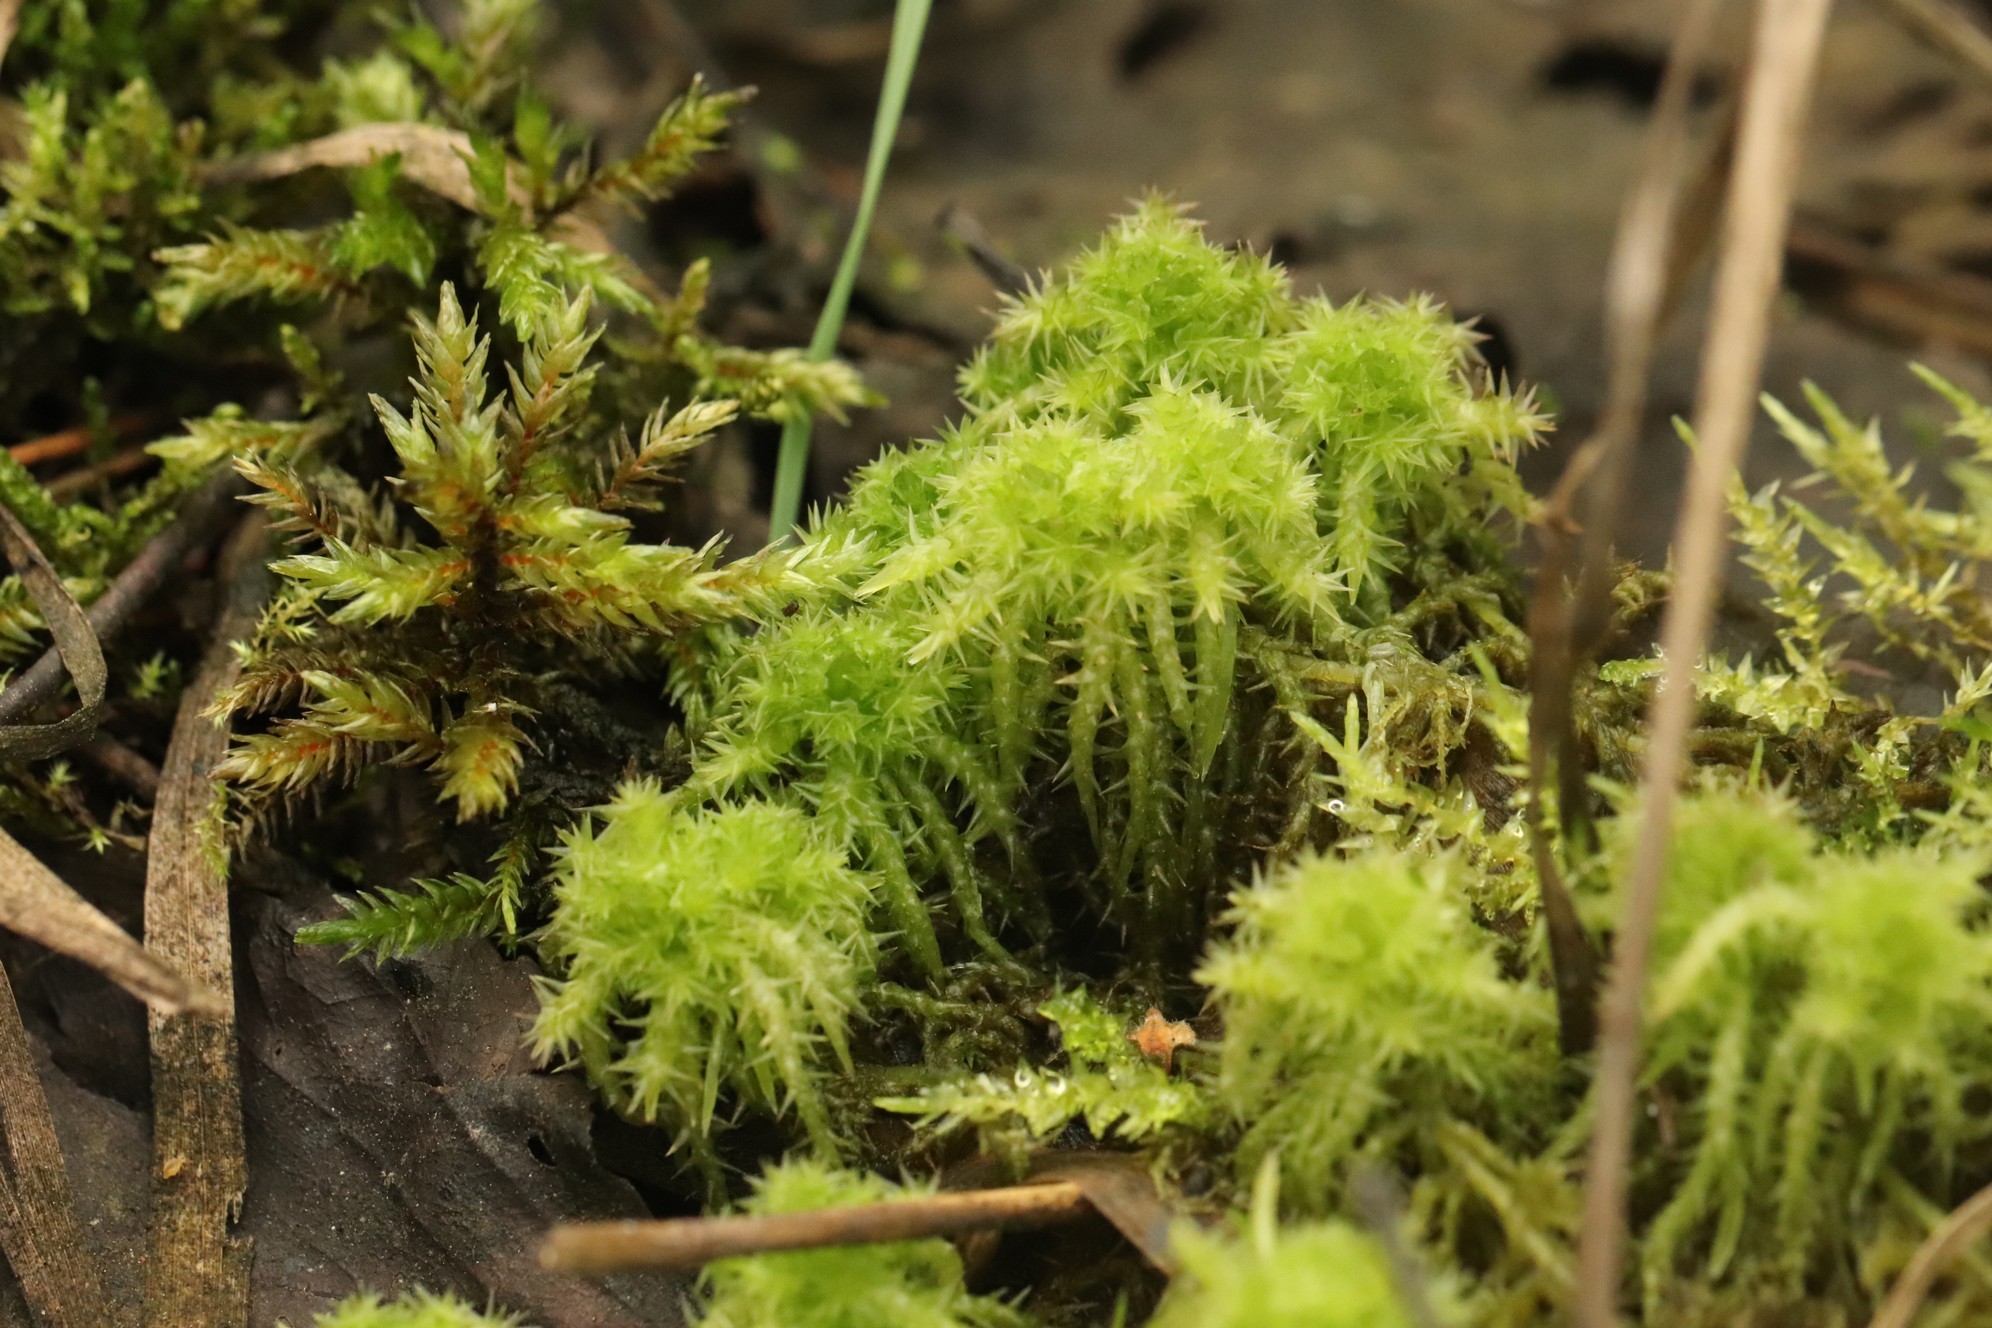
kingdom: Plantae
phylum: Bryophyta
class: Sphagnopsida
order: Sphagnales
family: Sphagnaceae
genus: Sphagnum
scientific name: Sphagnum squarrosum
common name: Shaggy peat moss
